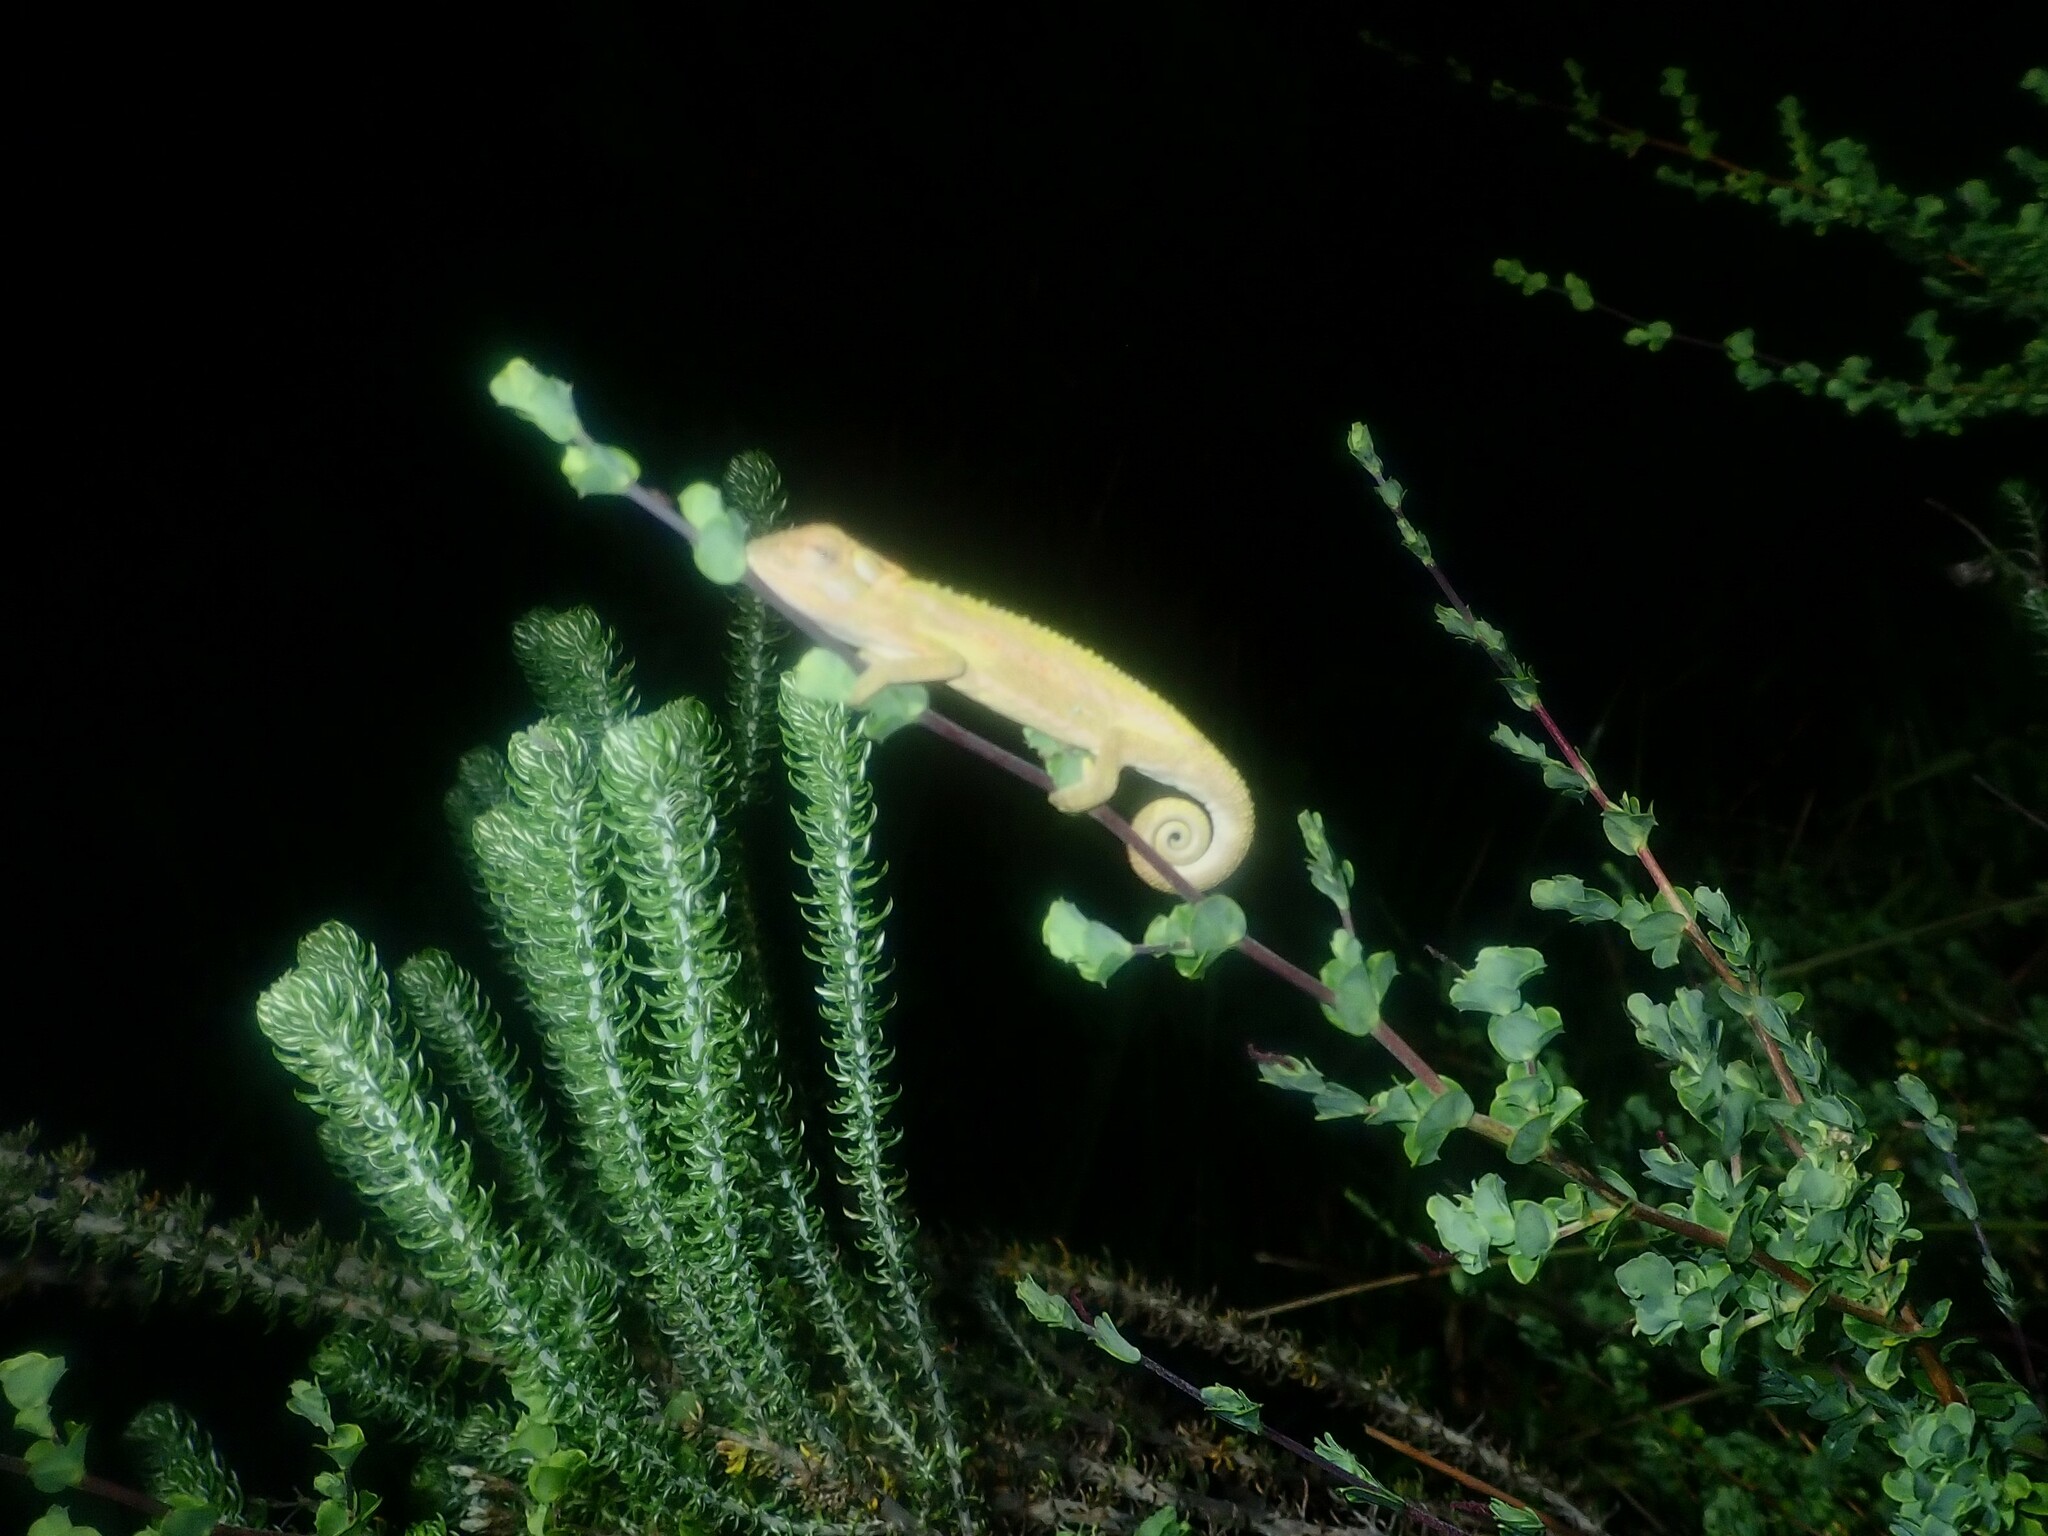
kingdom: Animalia
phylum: Chordata
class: Squamata
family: Chamaeleonidae
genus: Bradypodion
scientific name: Bradypodion pumilum
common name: Cape dwarf chameleon
